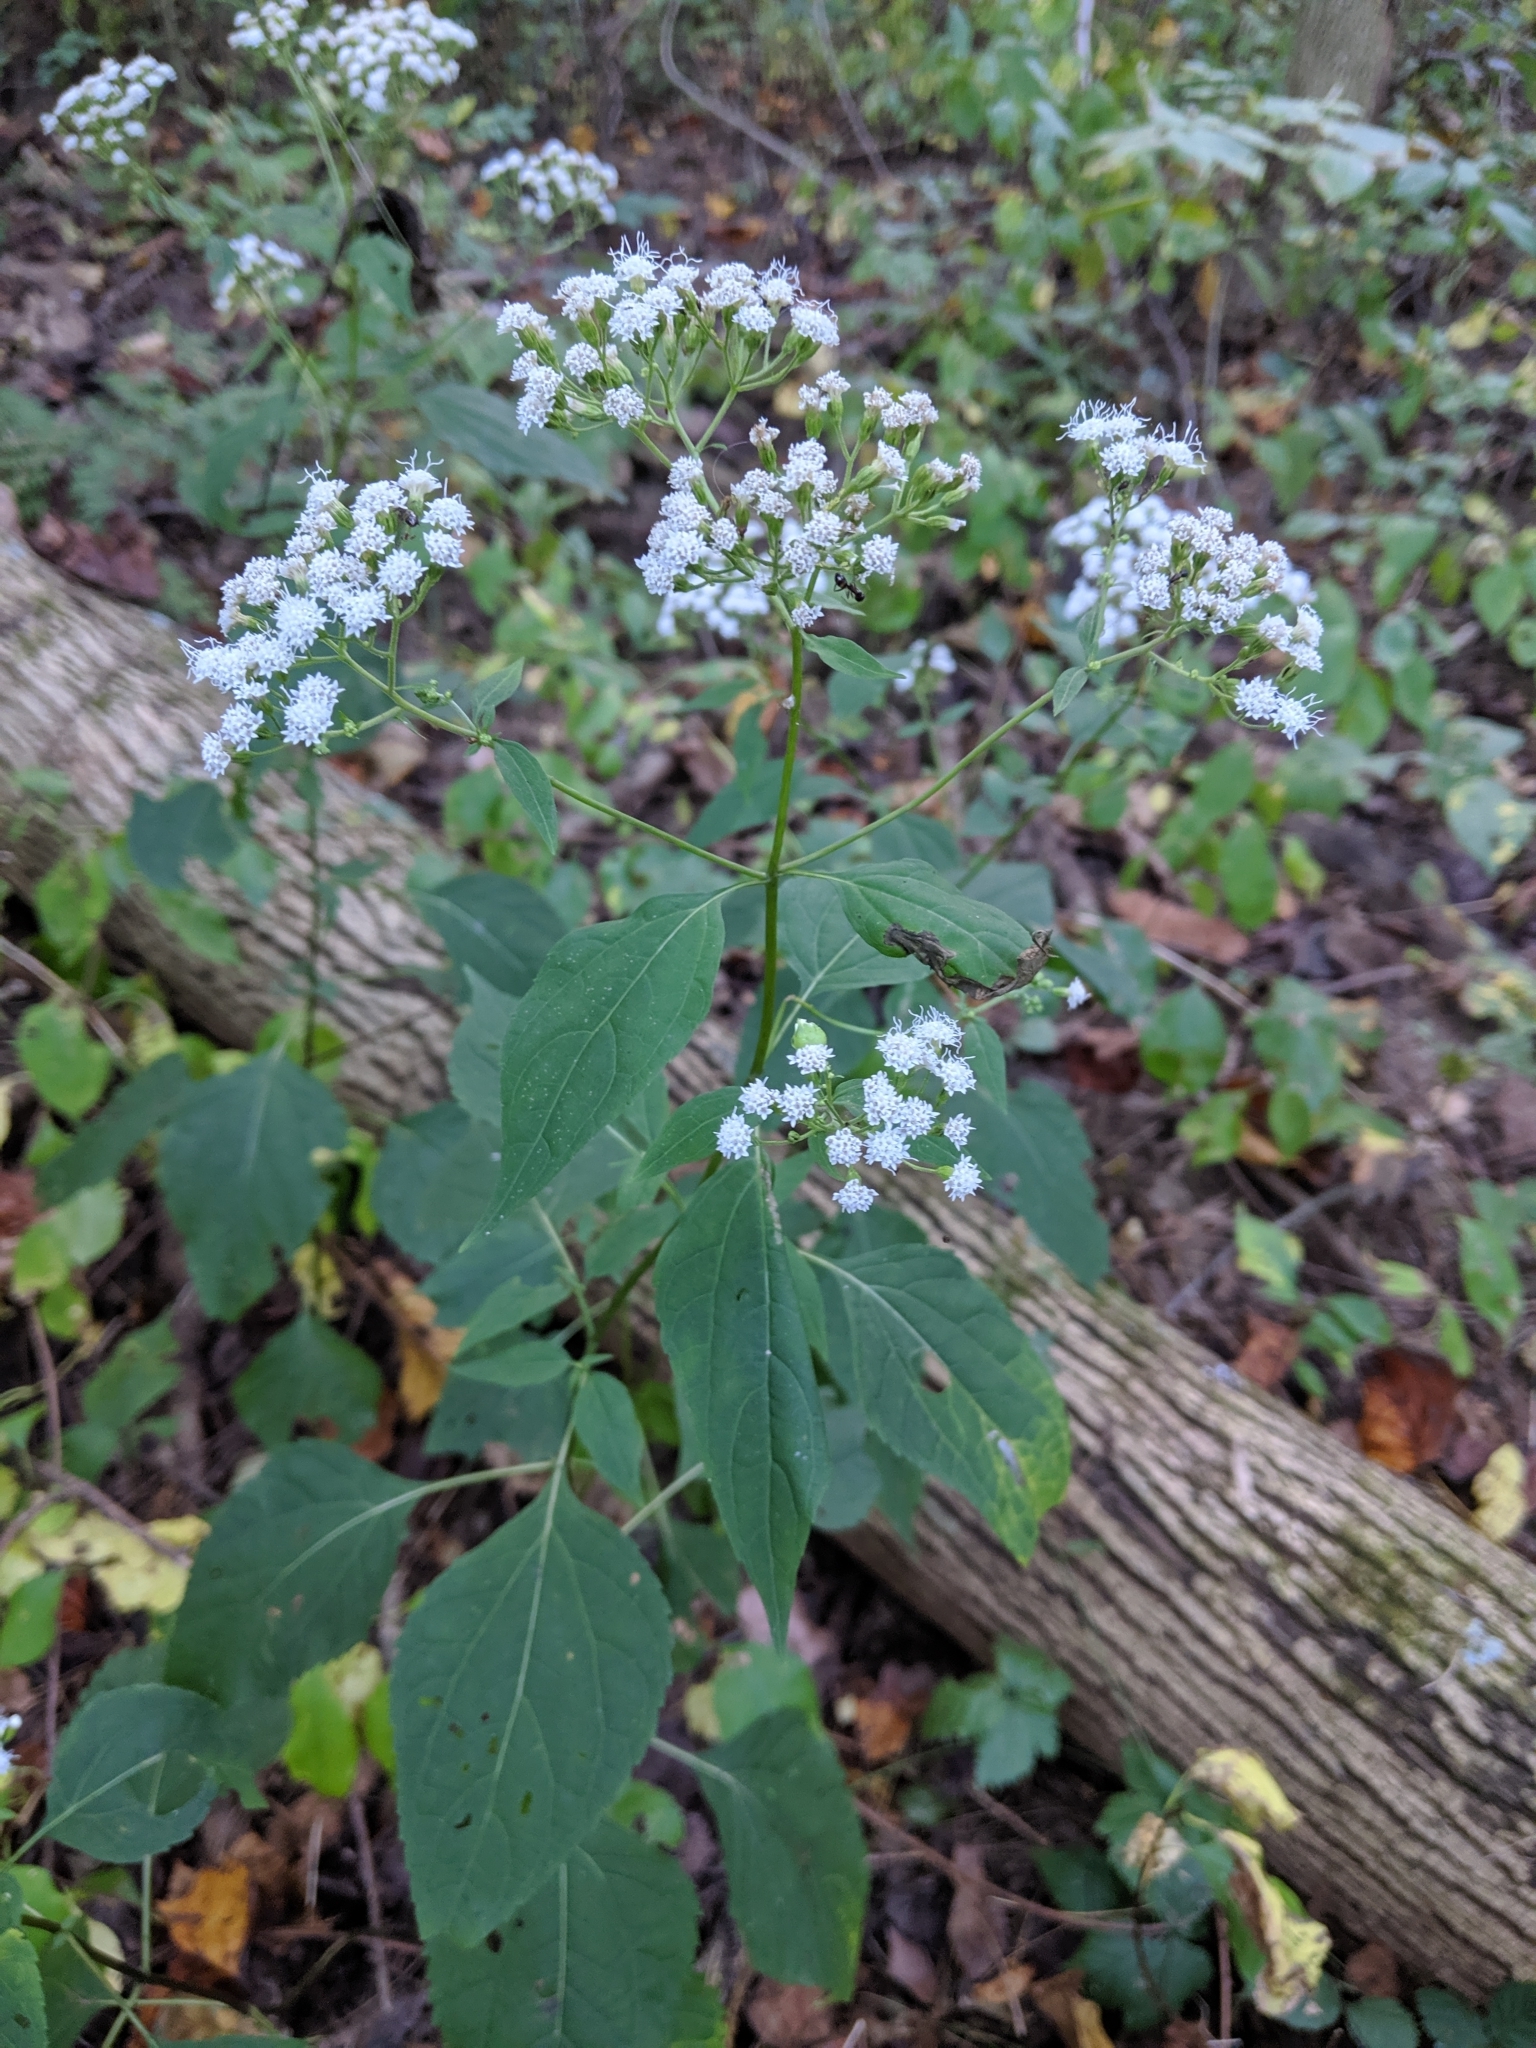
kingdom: Plantae
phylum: Tracheophyta
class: Magnoliopsida
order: Asterales
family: Asteraceae
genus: Ageratina
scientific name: Ageratina altissima
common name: White snakeroot
